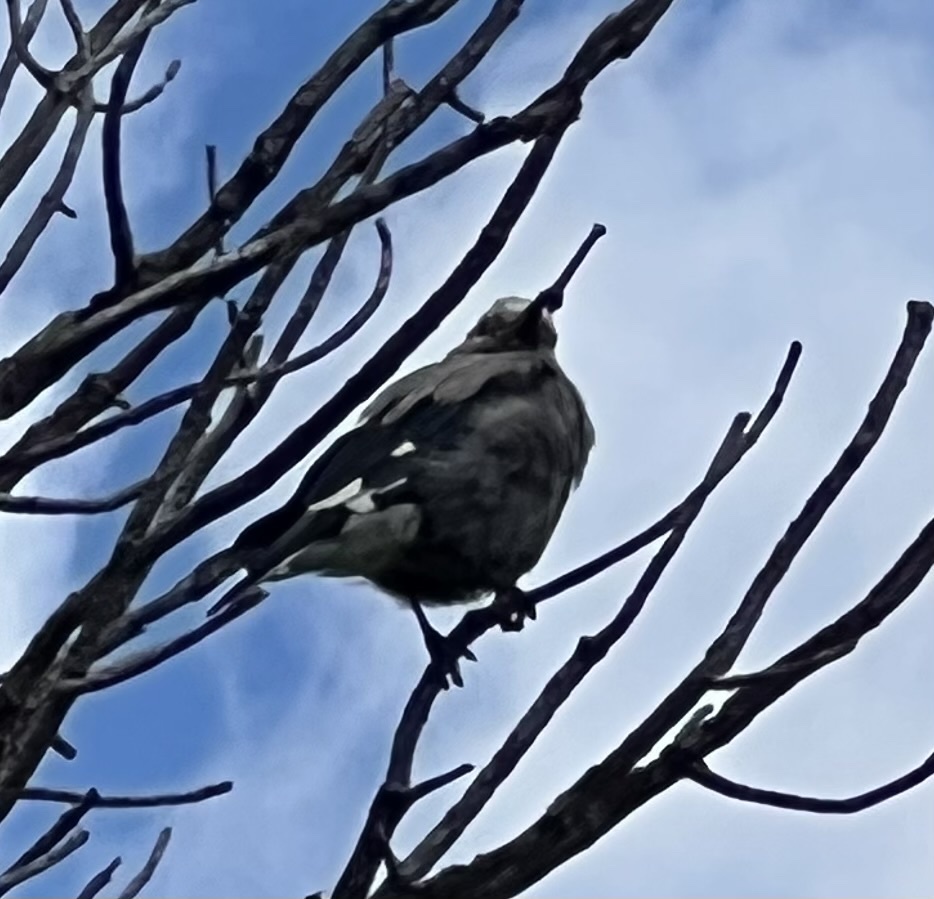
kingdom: Animalia
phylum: Chordata
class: Aves
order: Passeriformes
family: Corvidae
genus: Nucifraga
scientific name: Nucifraga columbiana
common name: Clark's nutcracker
